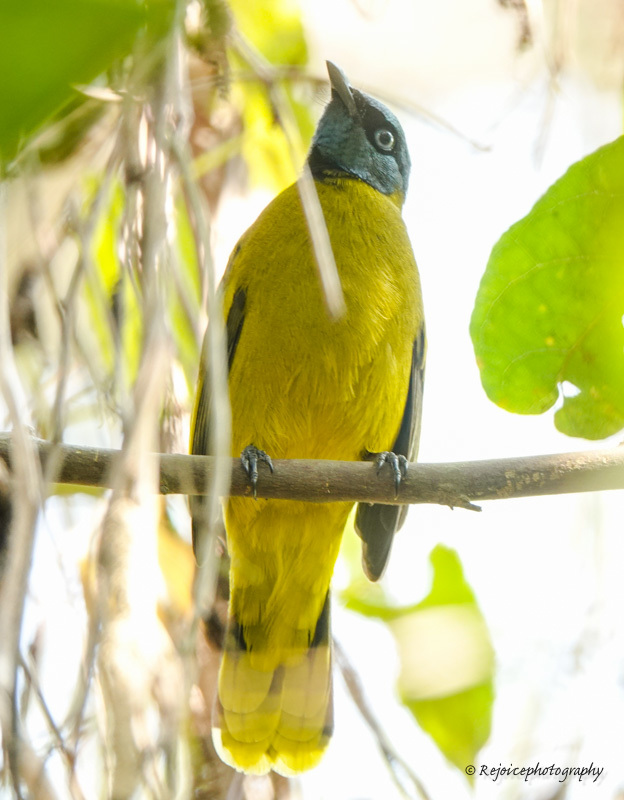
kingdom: Animalia
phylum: Chordata
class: Aves
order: Passeriformes
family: Pycnonotidae
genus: Microtarsus
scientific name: Microtarsus
